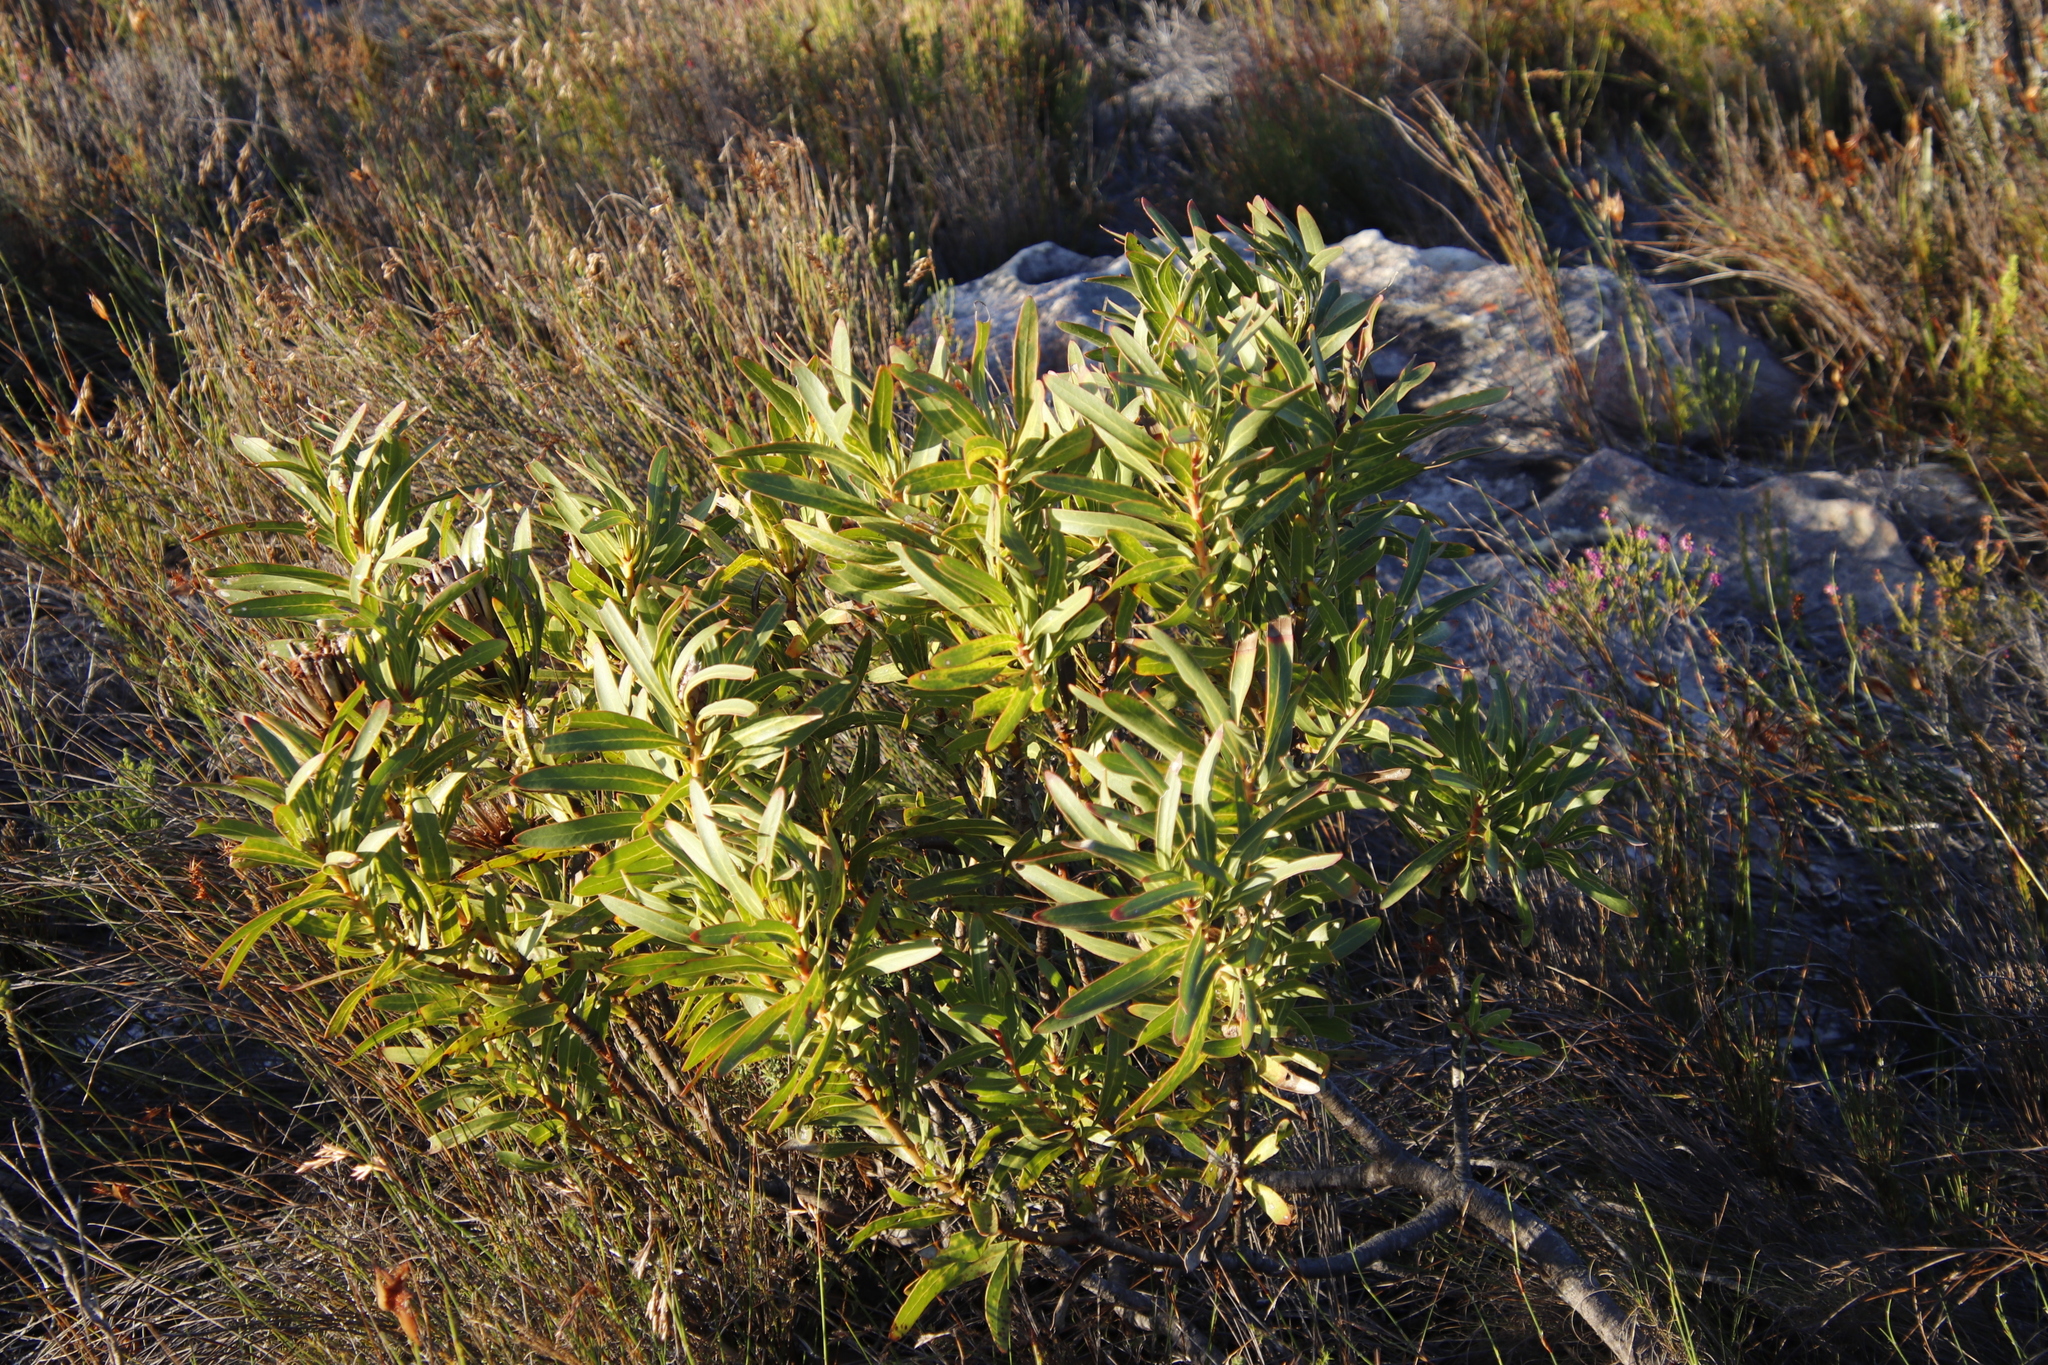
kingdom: Plantae
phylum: Tracheophyta
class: Magnoliopsida
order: Proteales
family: Proteaceae
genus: Protea
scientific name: Protea lepidocarpodendron
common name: Black-bearded protea
